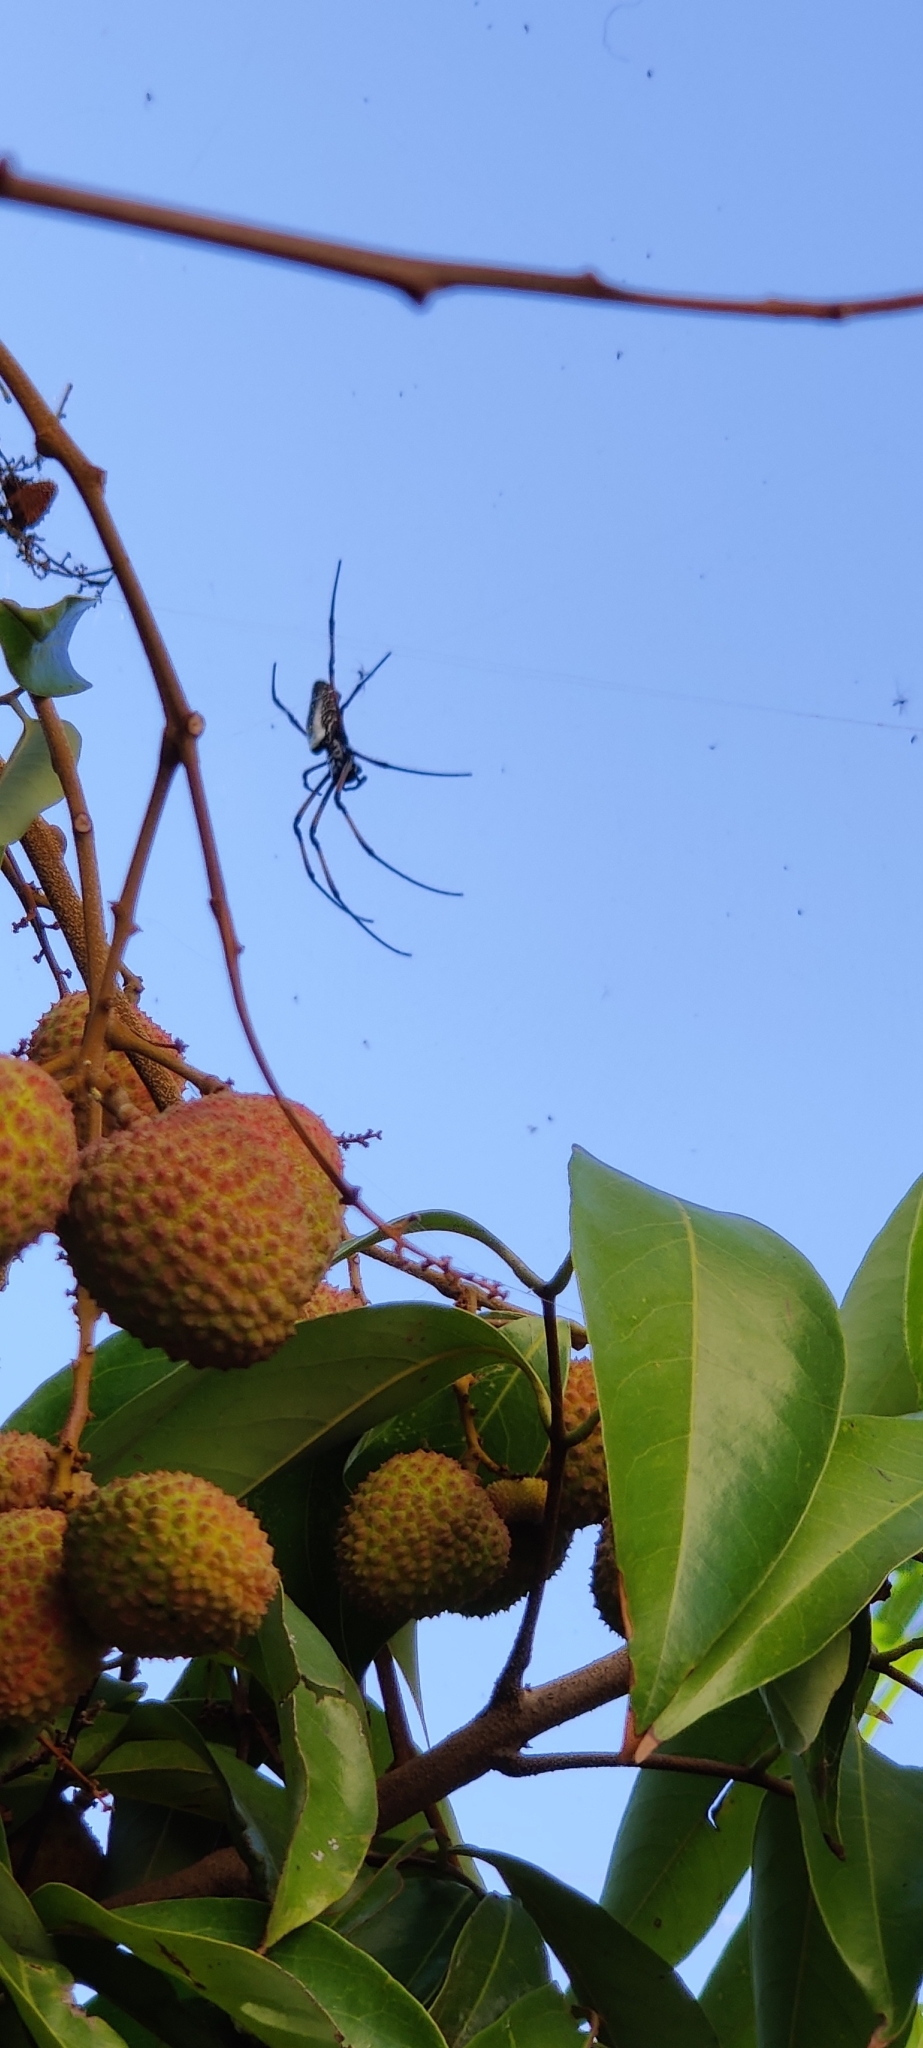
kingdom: Animalia
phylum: Arthropoda
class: Arachnida
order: Araneae
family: Araneidae
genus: Trichonephila
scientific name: Trichonephila inaurata
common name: Red-legged golden orb weaver
